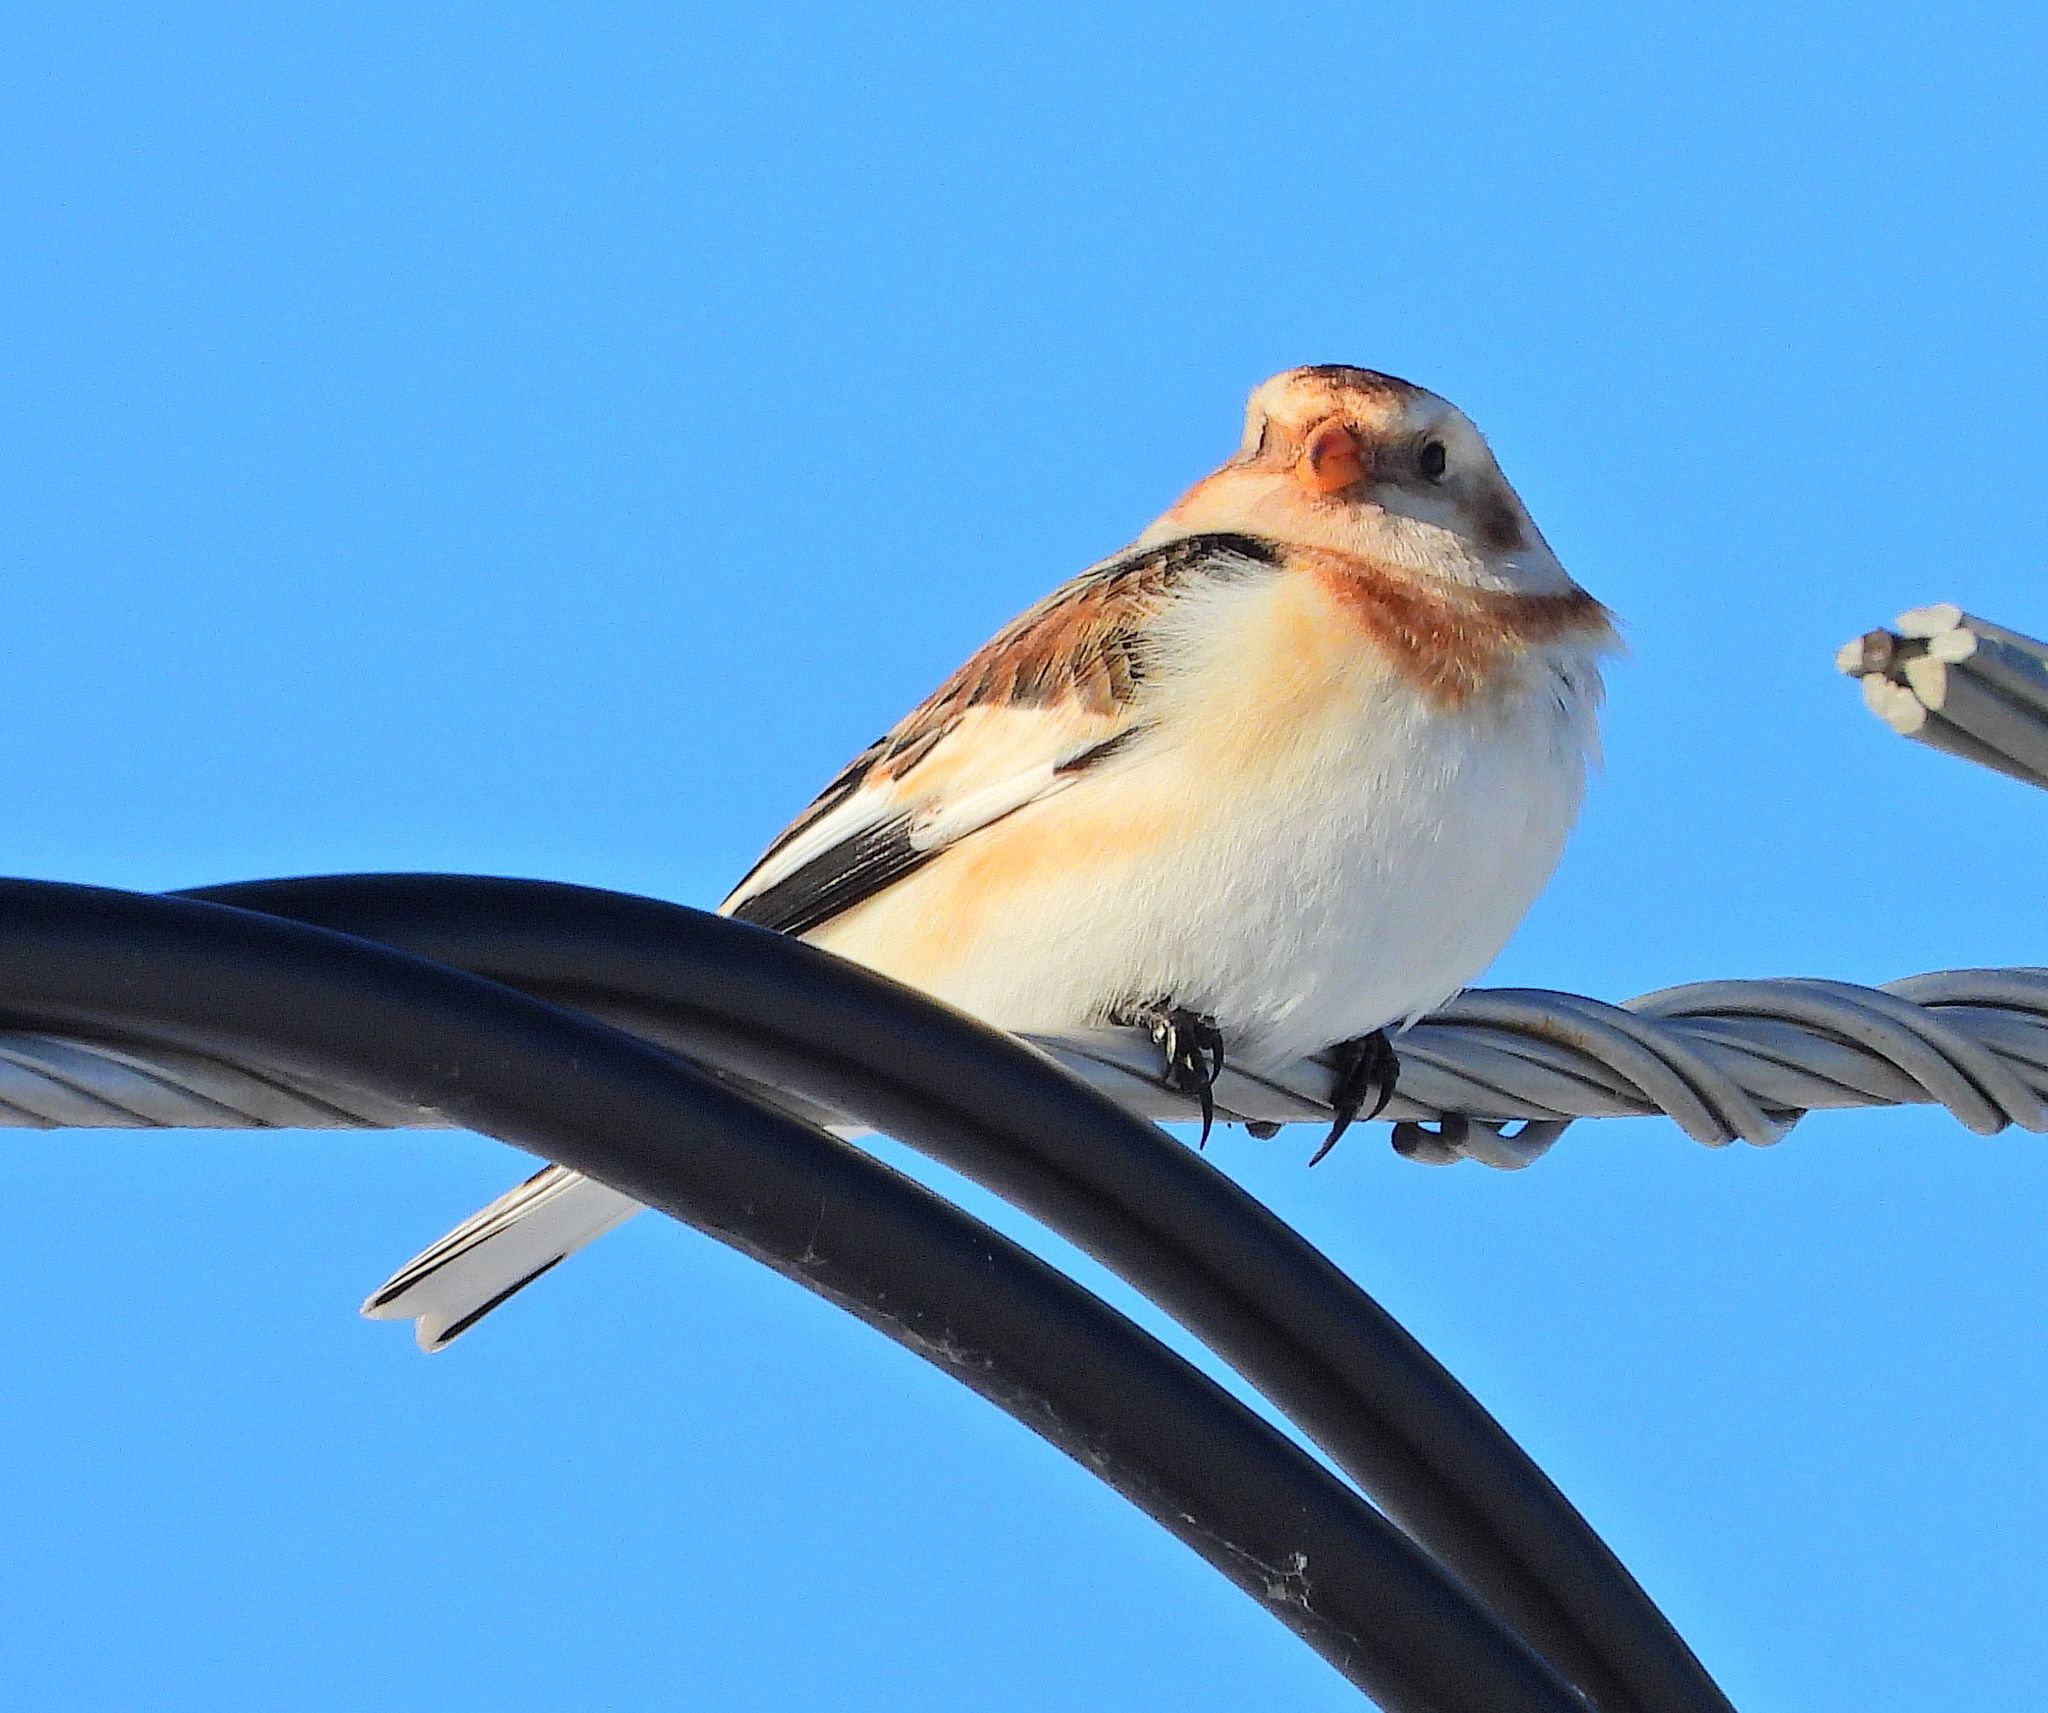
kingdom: Animalia
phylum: Chordata
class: Aves
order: Passeriformes
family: Calcariidae
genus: Plectrophenax
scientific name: Plectrophenax nivalis
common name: Snow bunting
